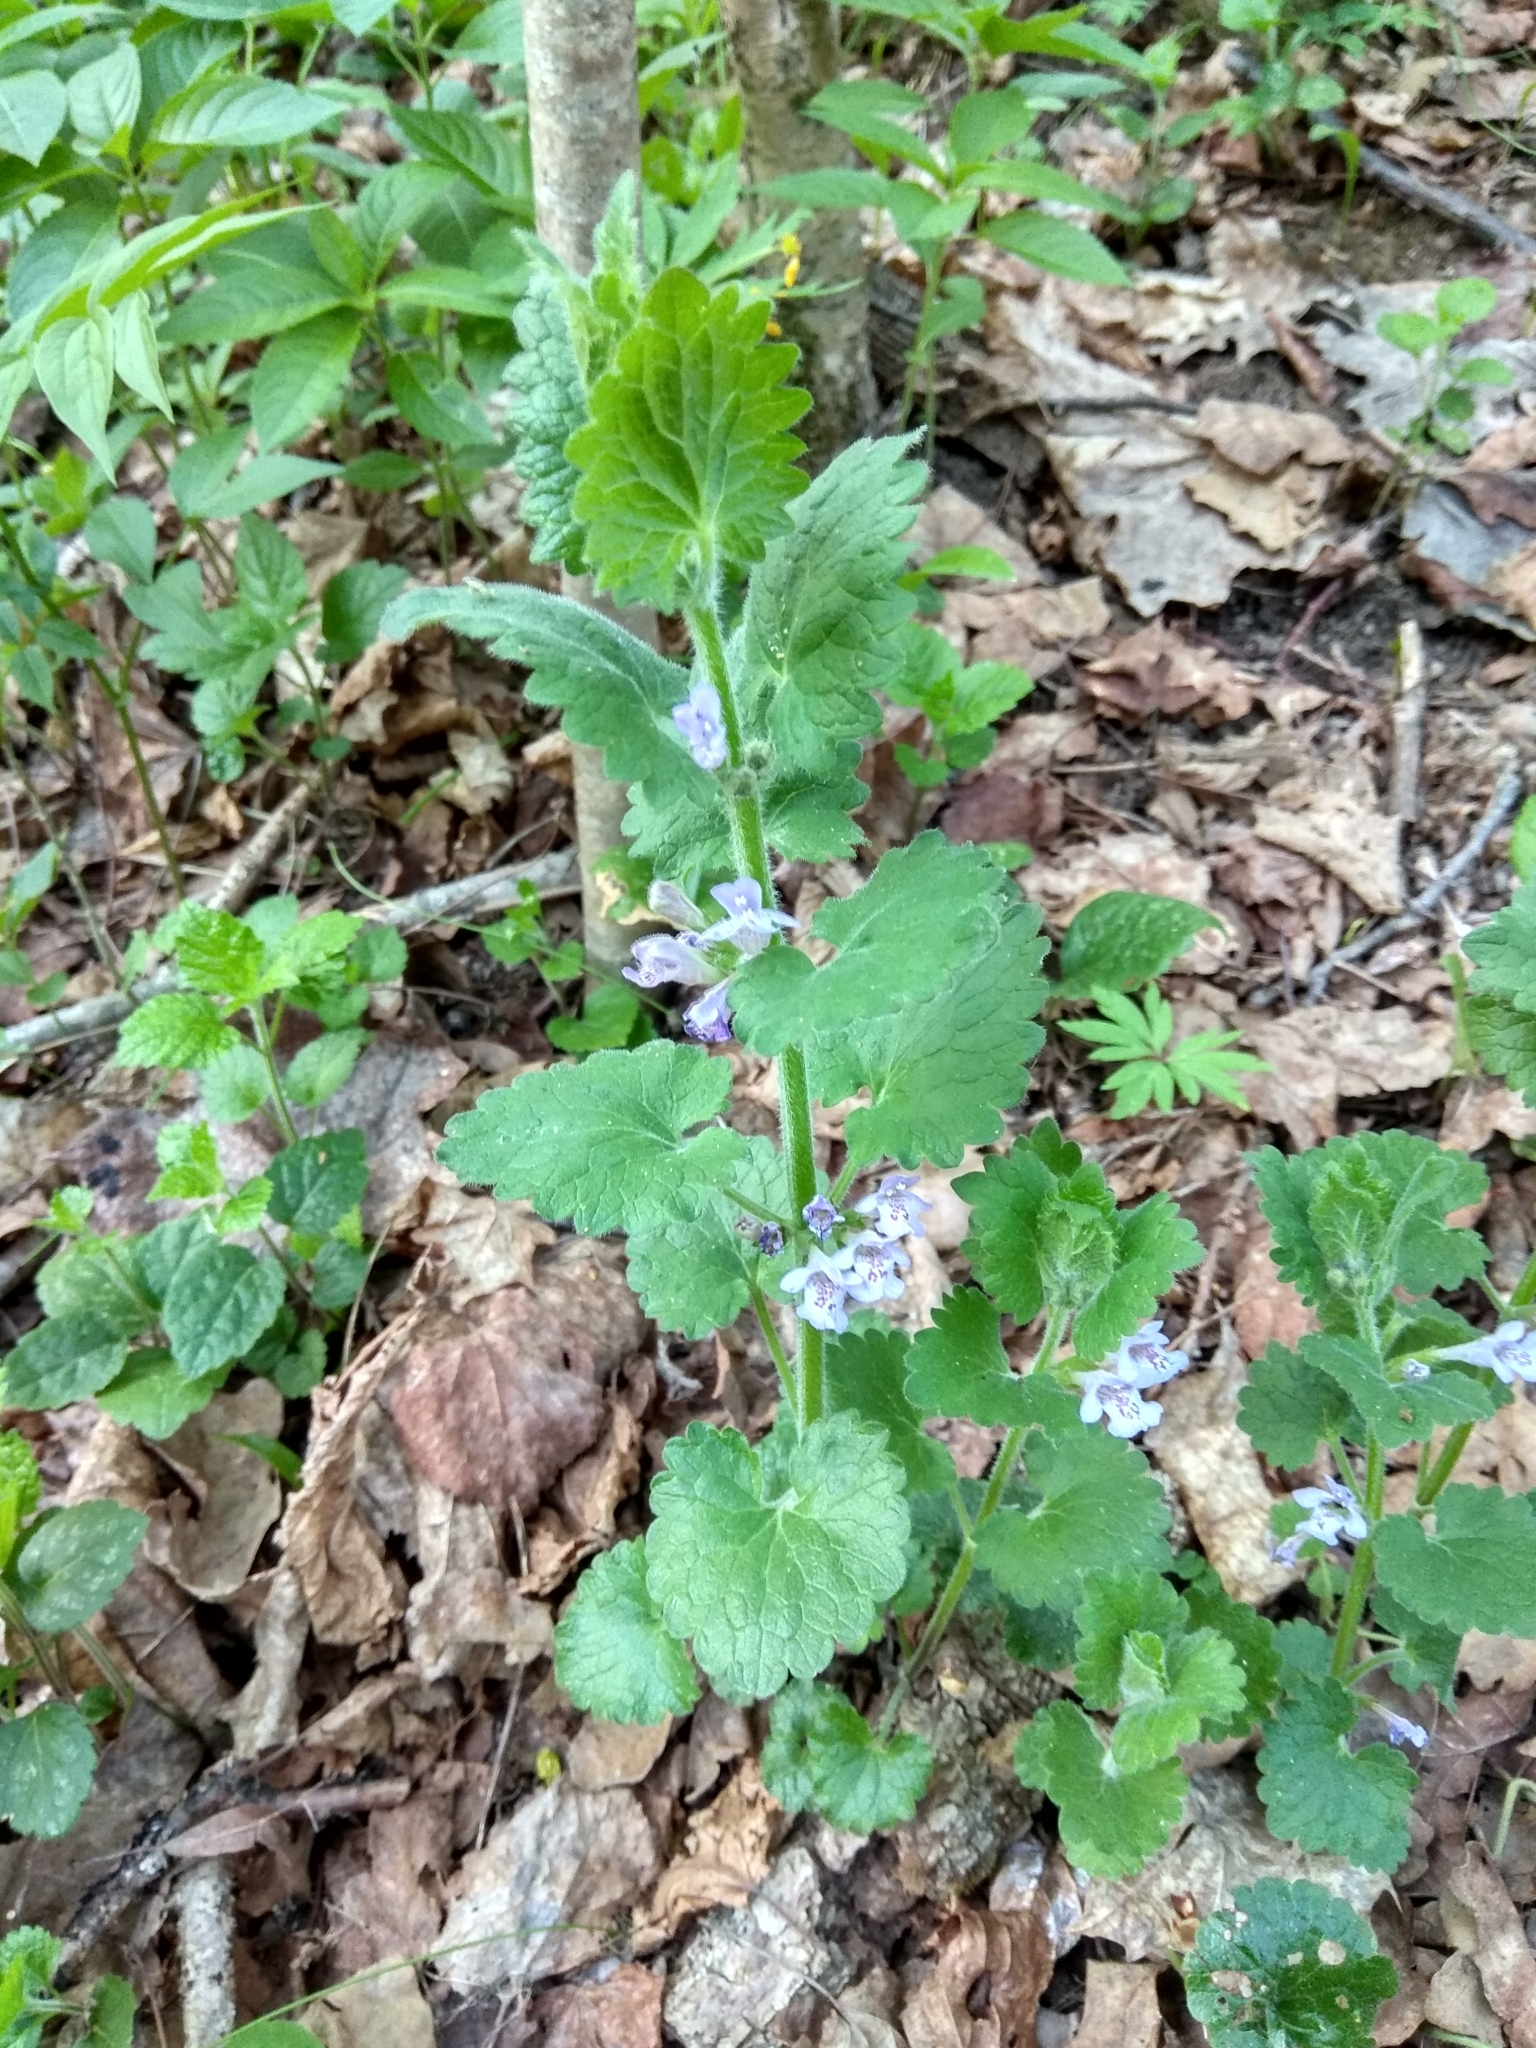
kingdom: Plantae
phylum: Tracheophyta
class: Magnoliopsida
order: Lamiales
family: Lamiaceae
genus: Glechoma
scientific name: Glechoma hederacea
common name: Ground ivy
